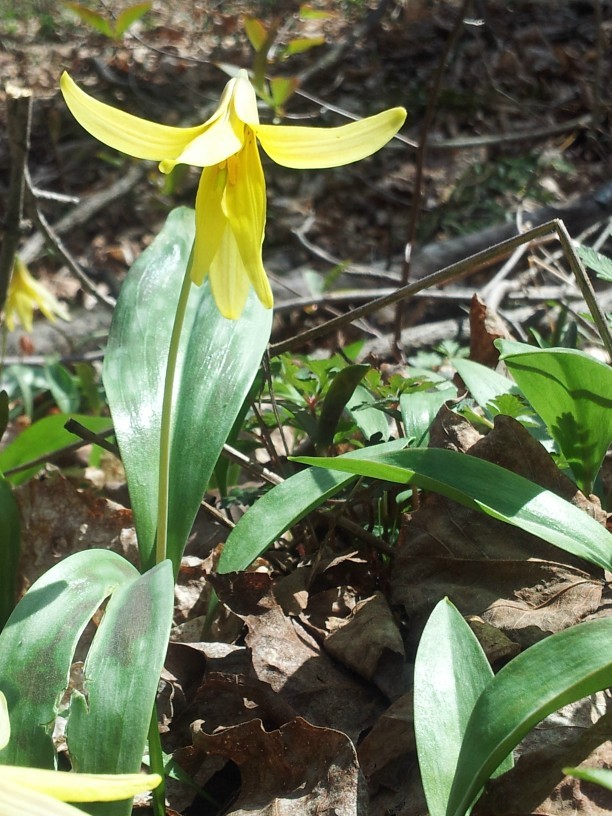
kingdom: Plantae
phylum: Tracheophyta
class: Liliopsida
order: Liliales
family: Liliaceae
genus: Erythronium
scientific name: Erythronium americanum
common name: Yellow adder's-tongue
